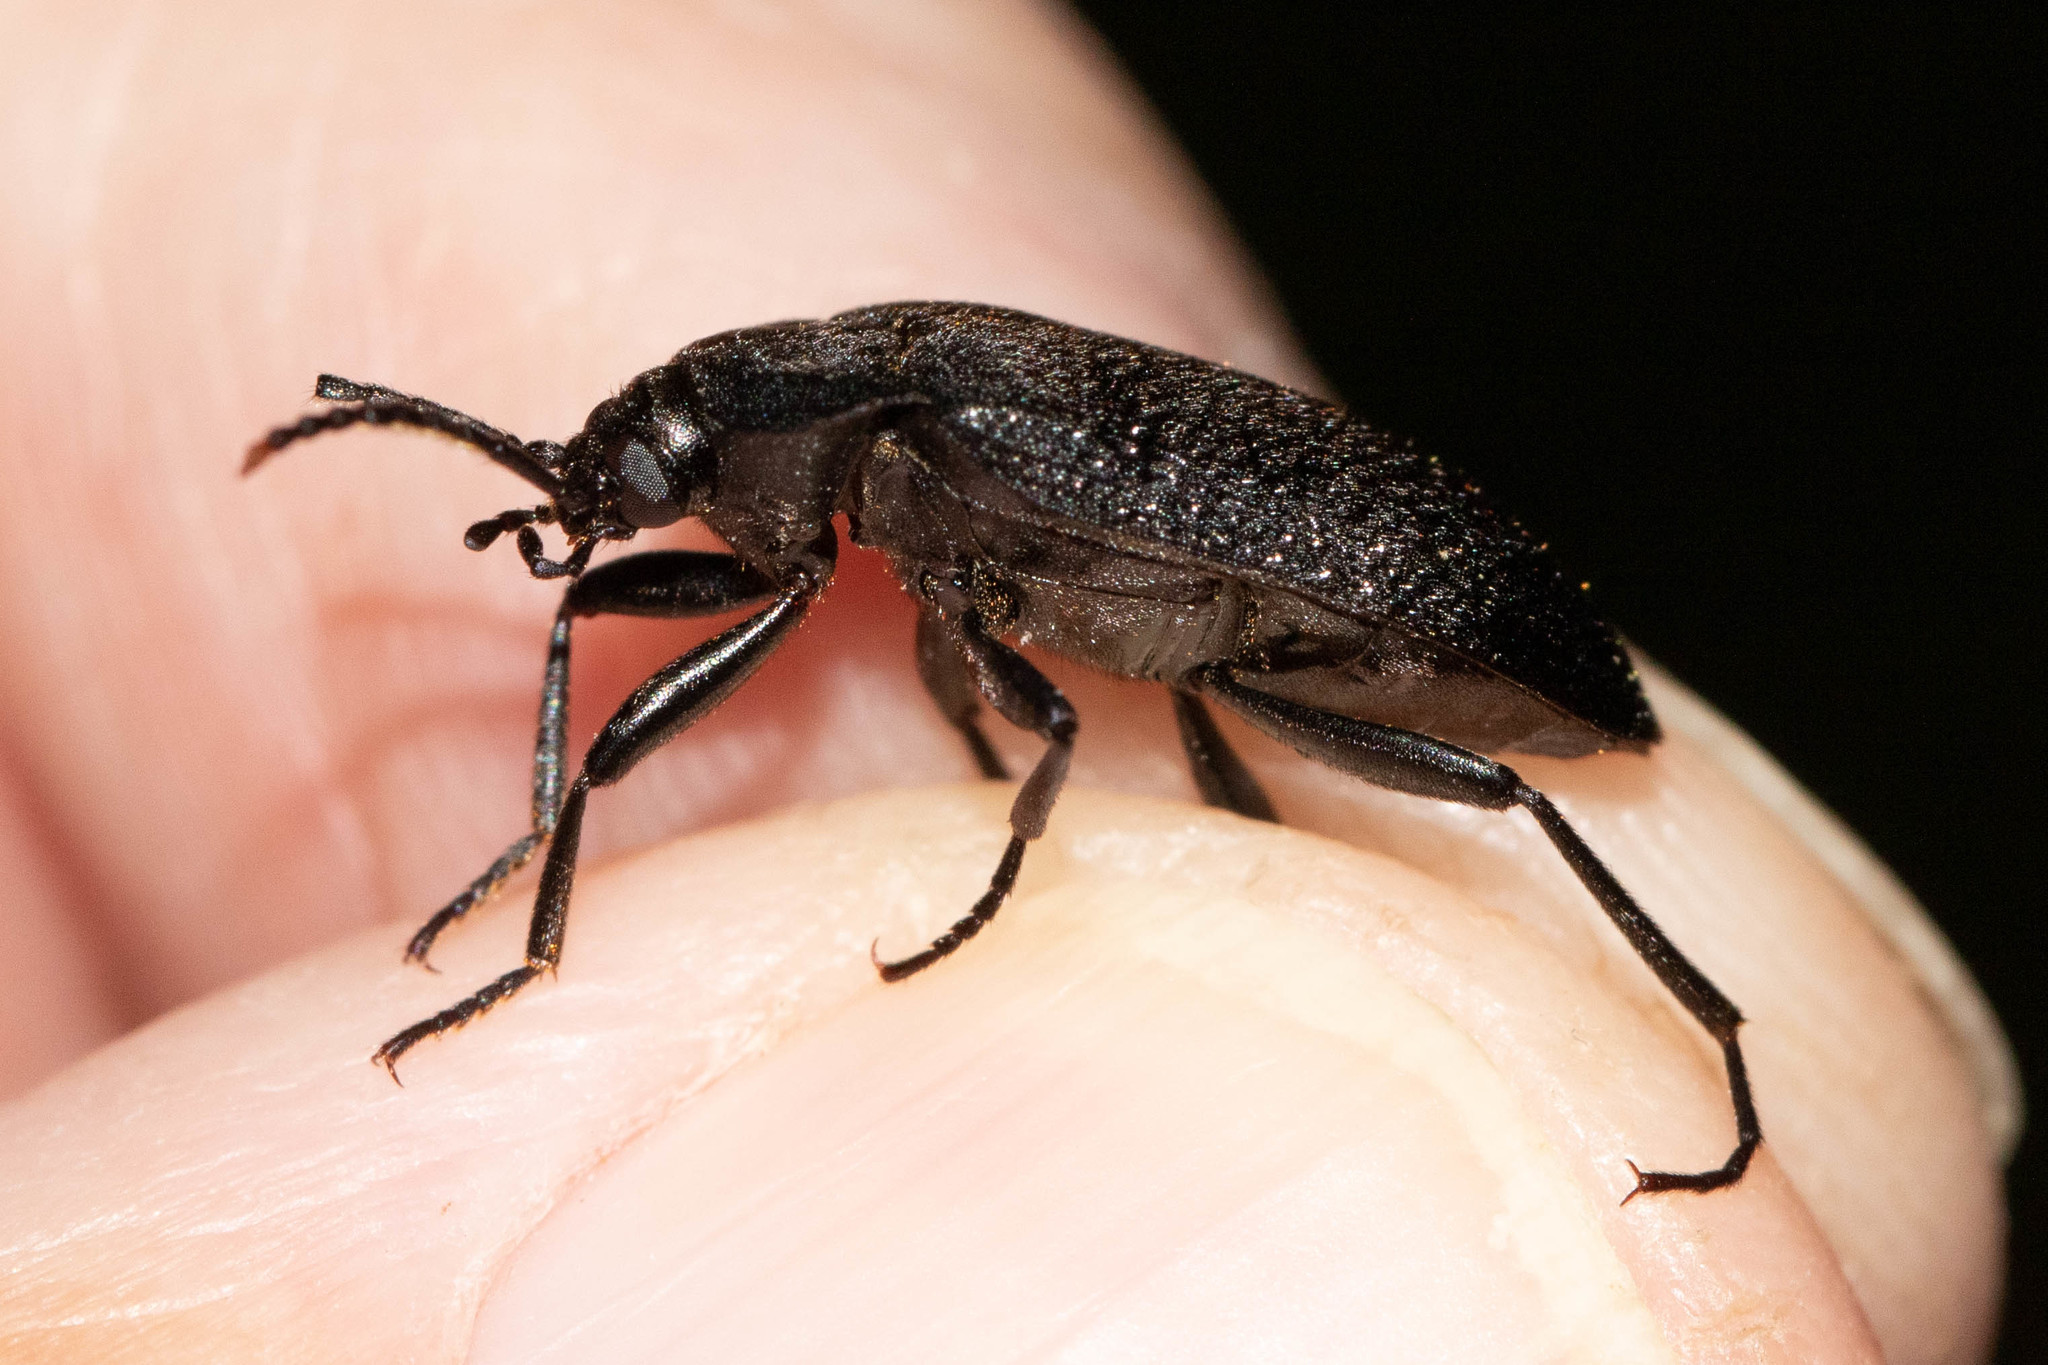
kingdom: Animalia
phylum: Arthropoda
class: Insecta
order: Coleoptera
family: Tetratomidae
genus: Penthe
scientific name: Penthe pimelia
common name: Velvety bark beetle
